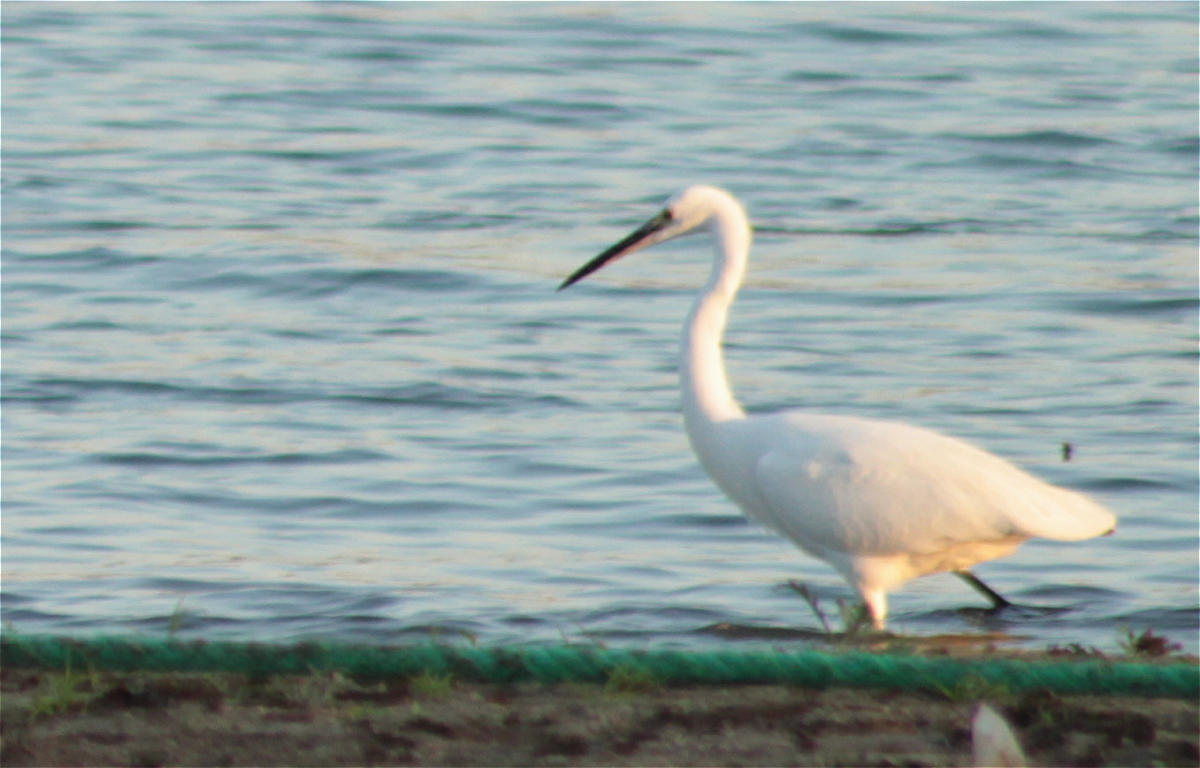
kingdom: Animalia
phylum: Chordata
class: Aves
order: Pelecaniformes
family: Ardeidae
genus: Egretta
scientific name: Egretta garzetta
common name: Little egret
